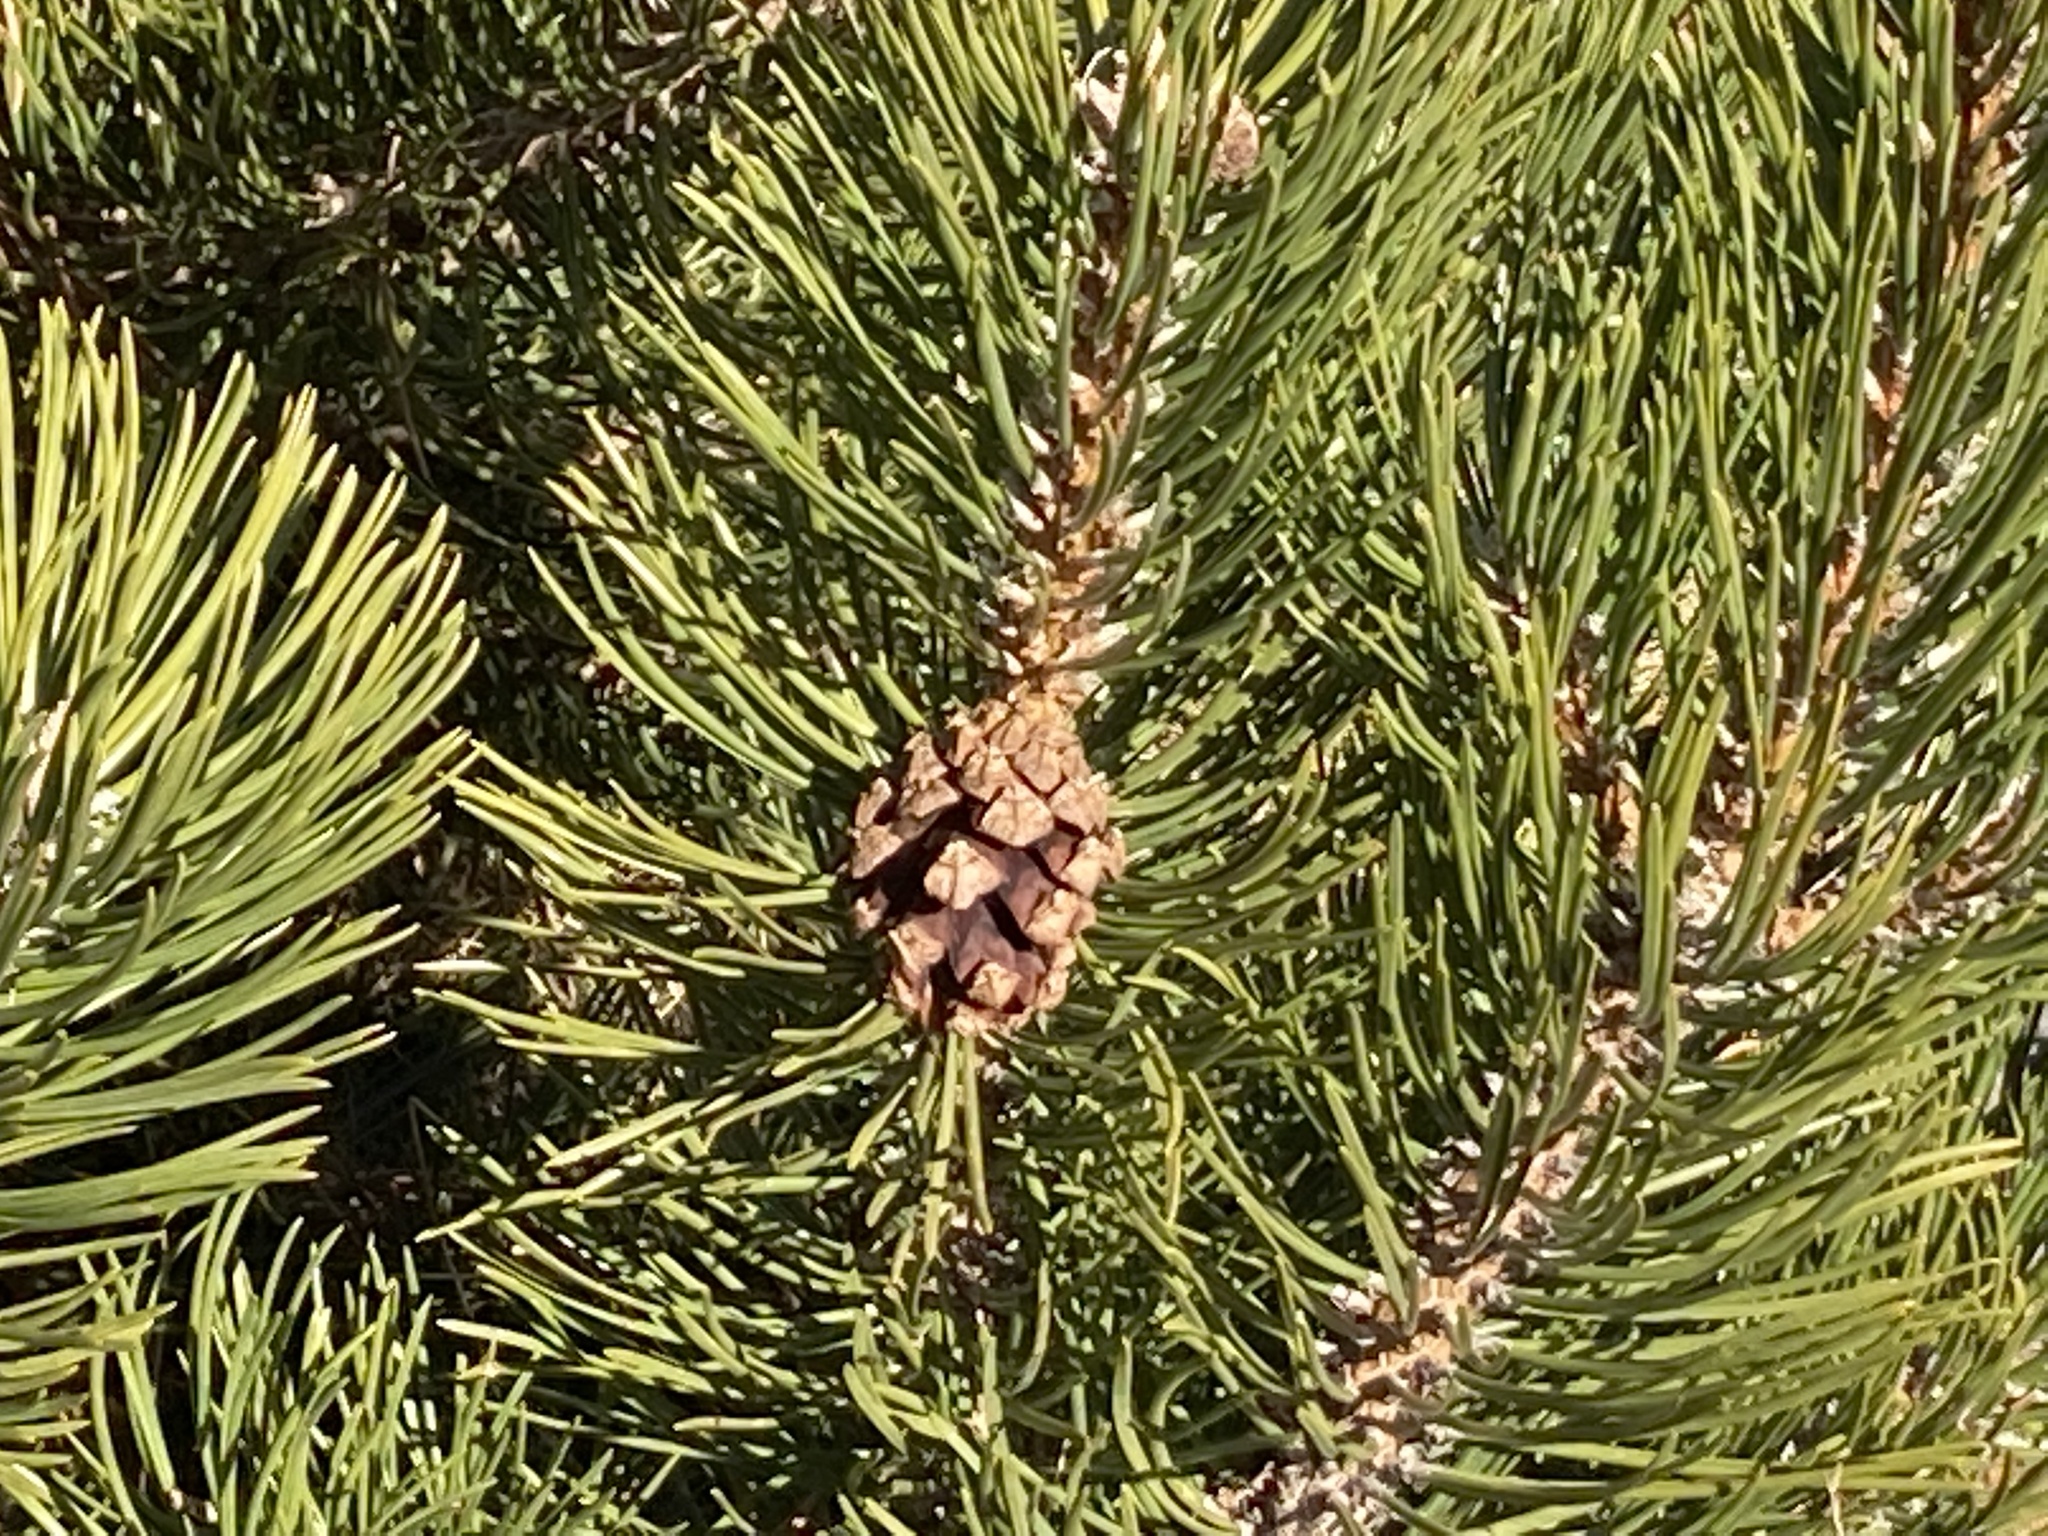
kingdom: Plantae
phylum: Tracheophyta
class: Pinopsida
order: Pinales
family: Pinaceae
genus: Pinus
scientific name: Pinus uncinata
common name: Mountain pine
